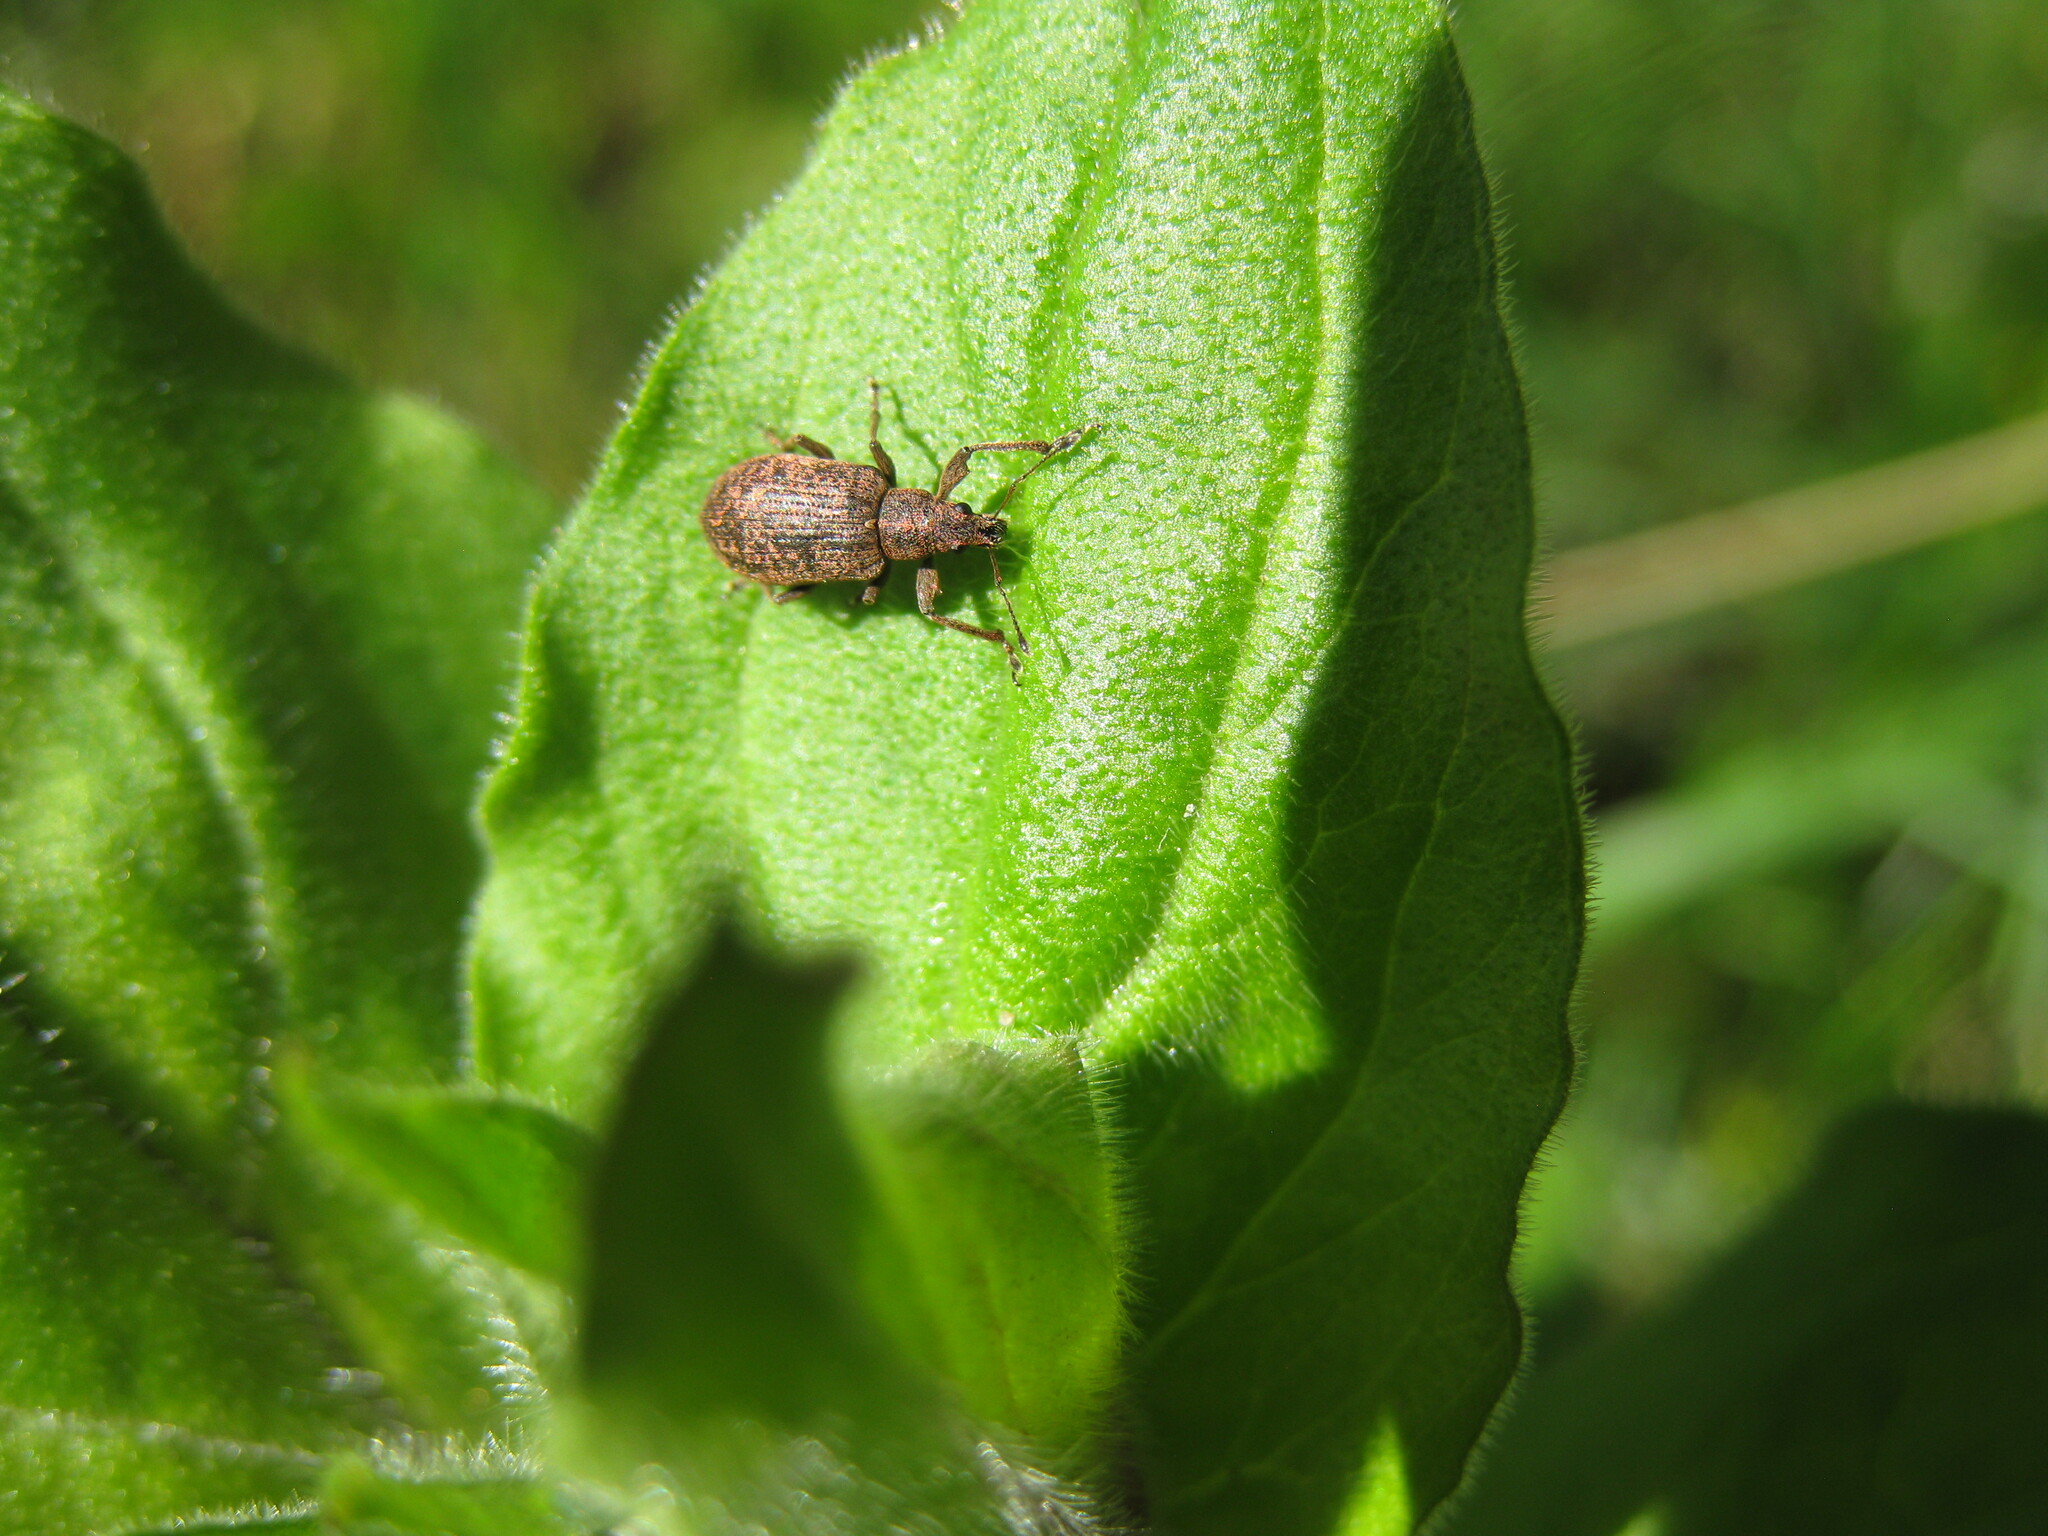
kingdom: Animalia
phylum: Arthropoda
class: Insecta
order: Coleoptera
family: Curculionidae
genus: Polydrusus
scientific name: Polydrusus pilosus
